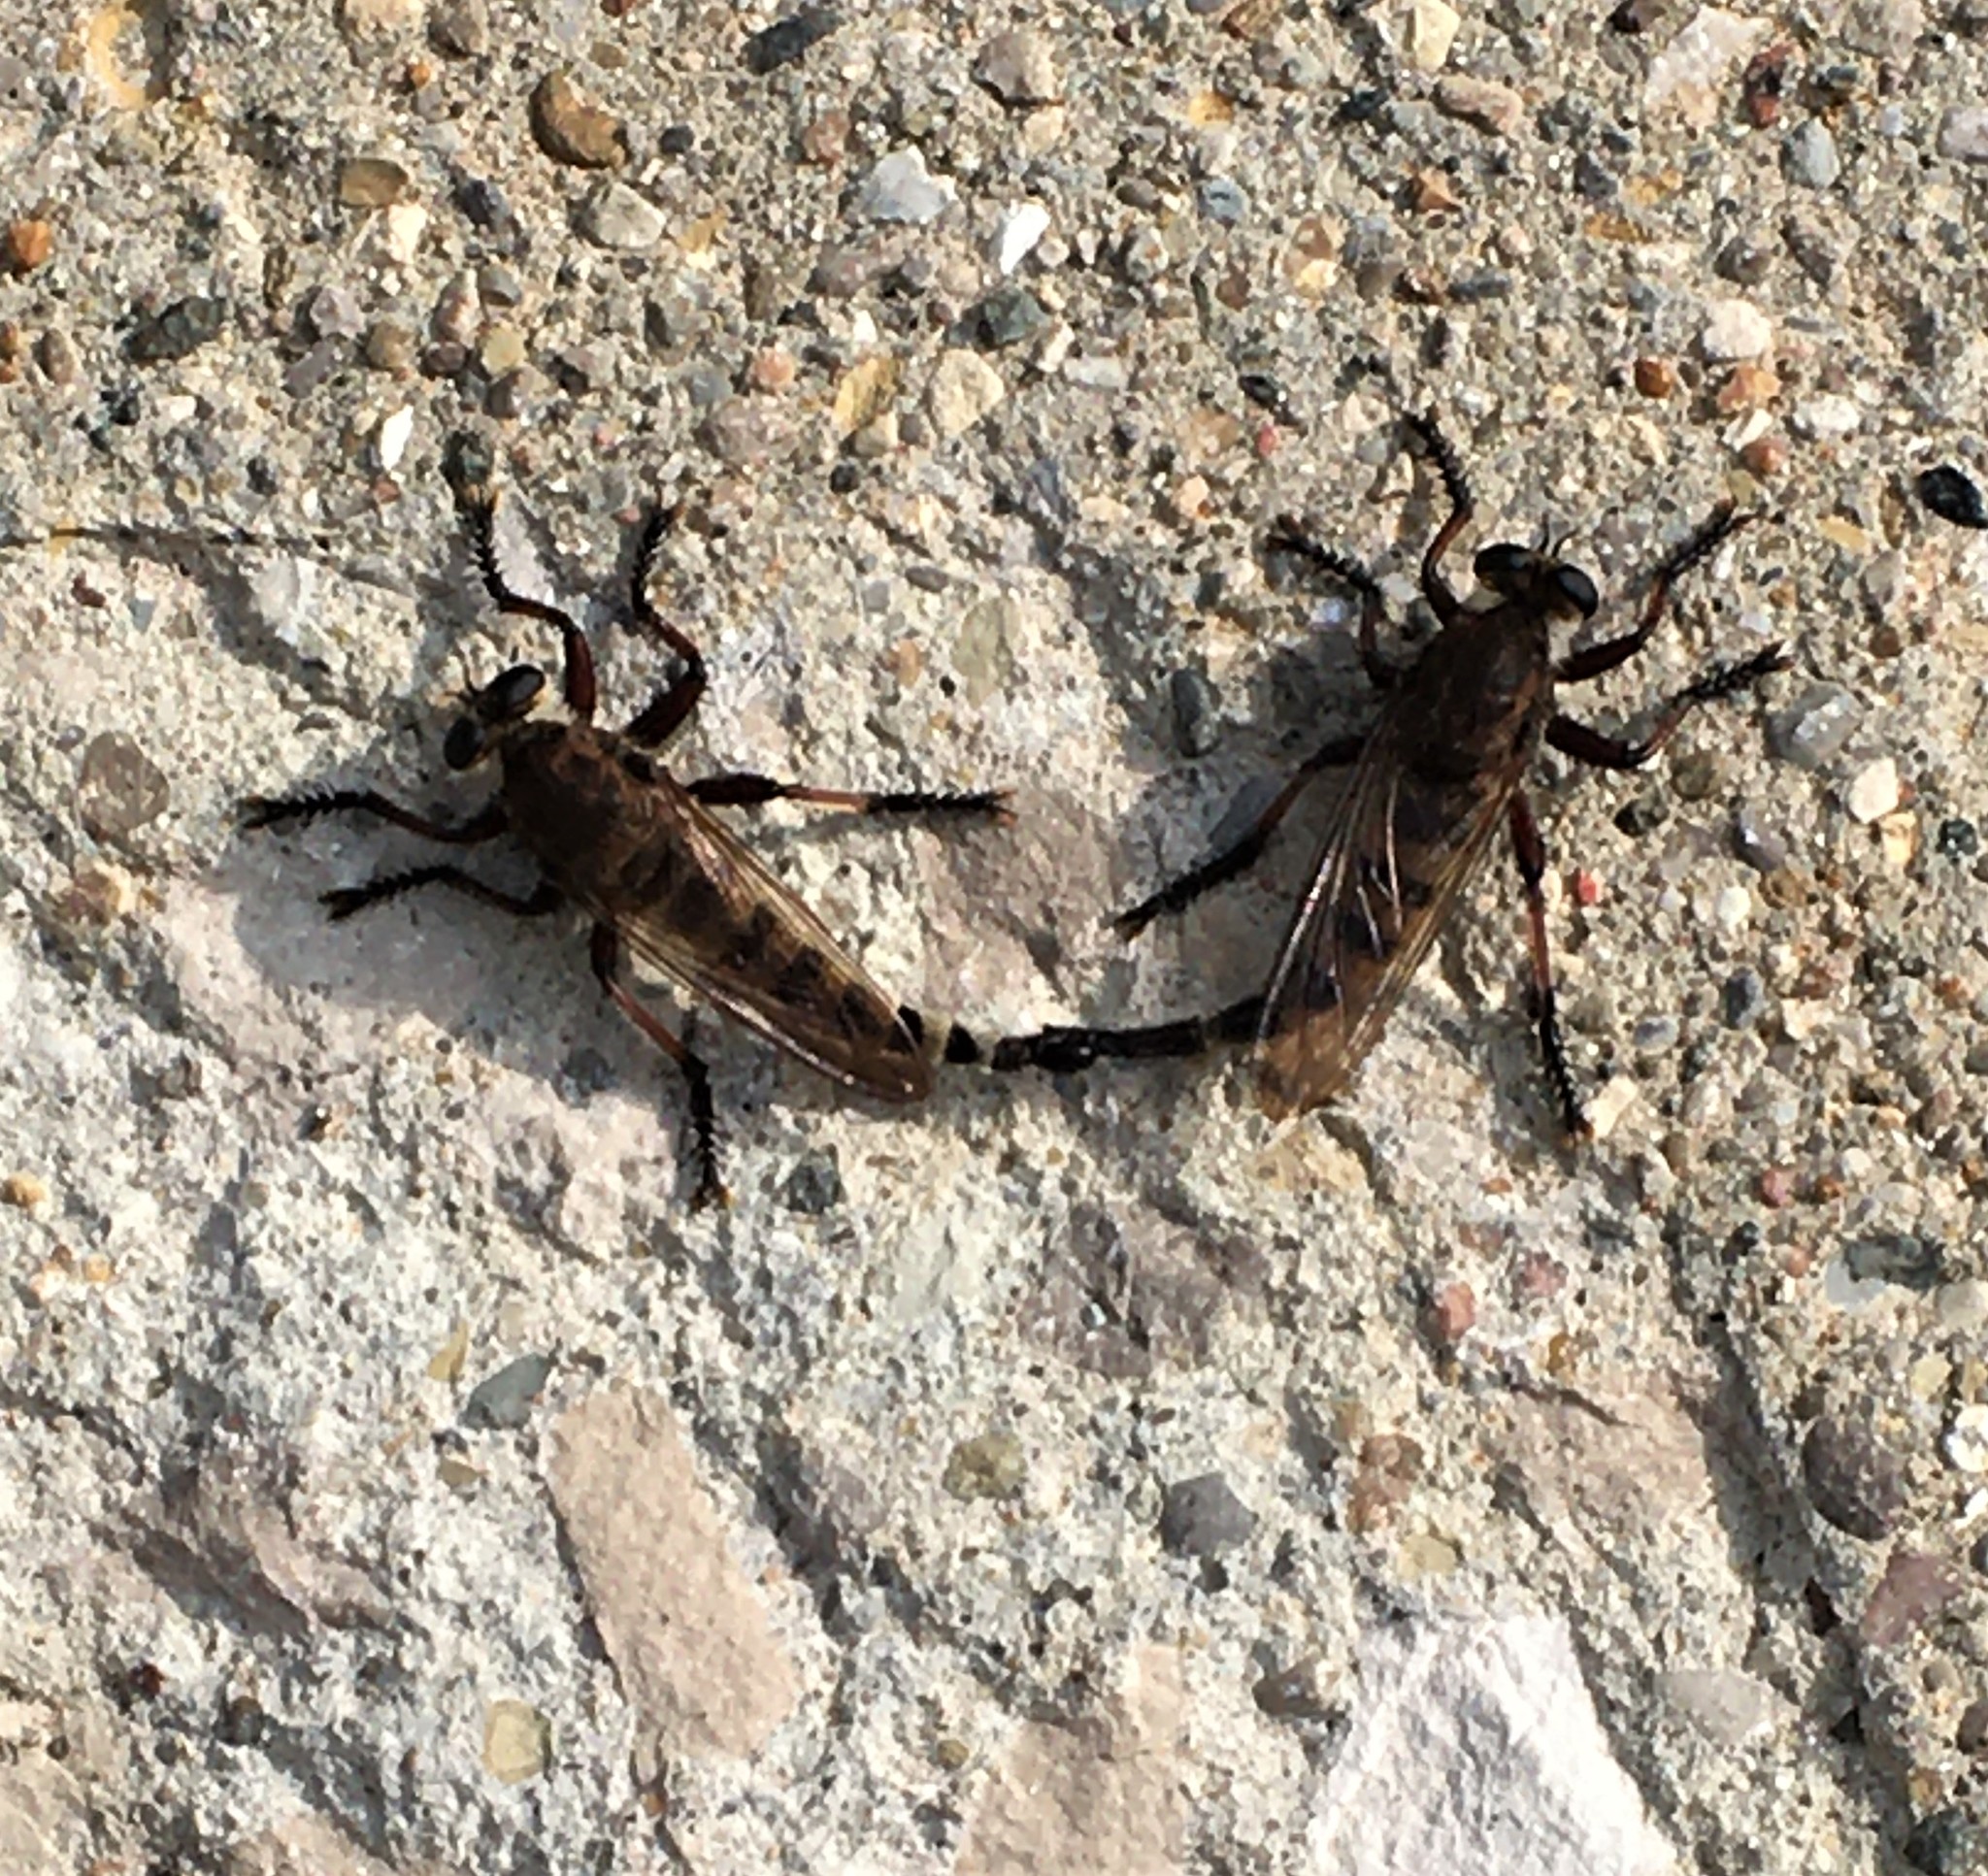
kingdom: Animalia
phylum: Arthropoda
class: Insecta
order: Diptera
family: Asilidae
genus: Promachus
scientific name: Promachus hinei
